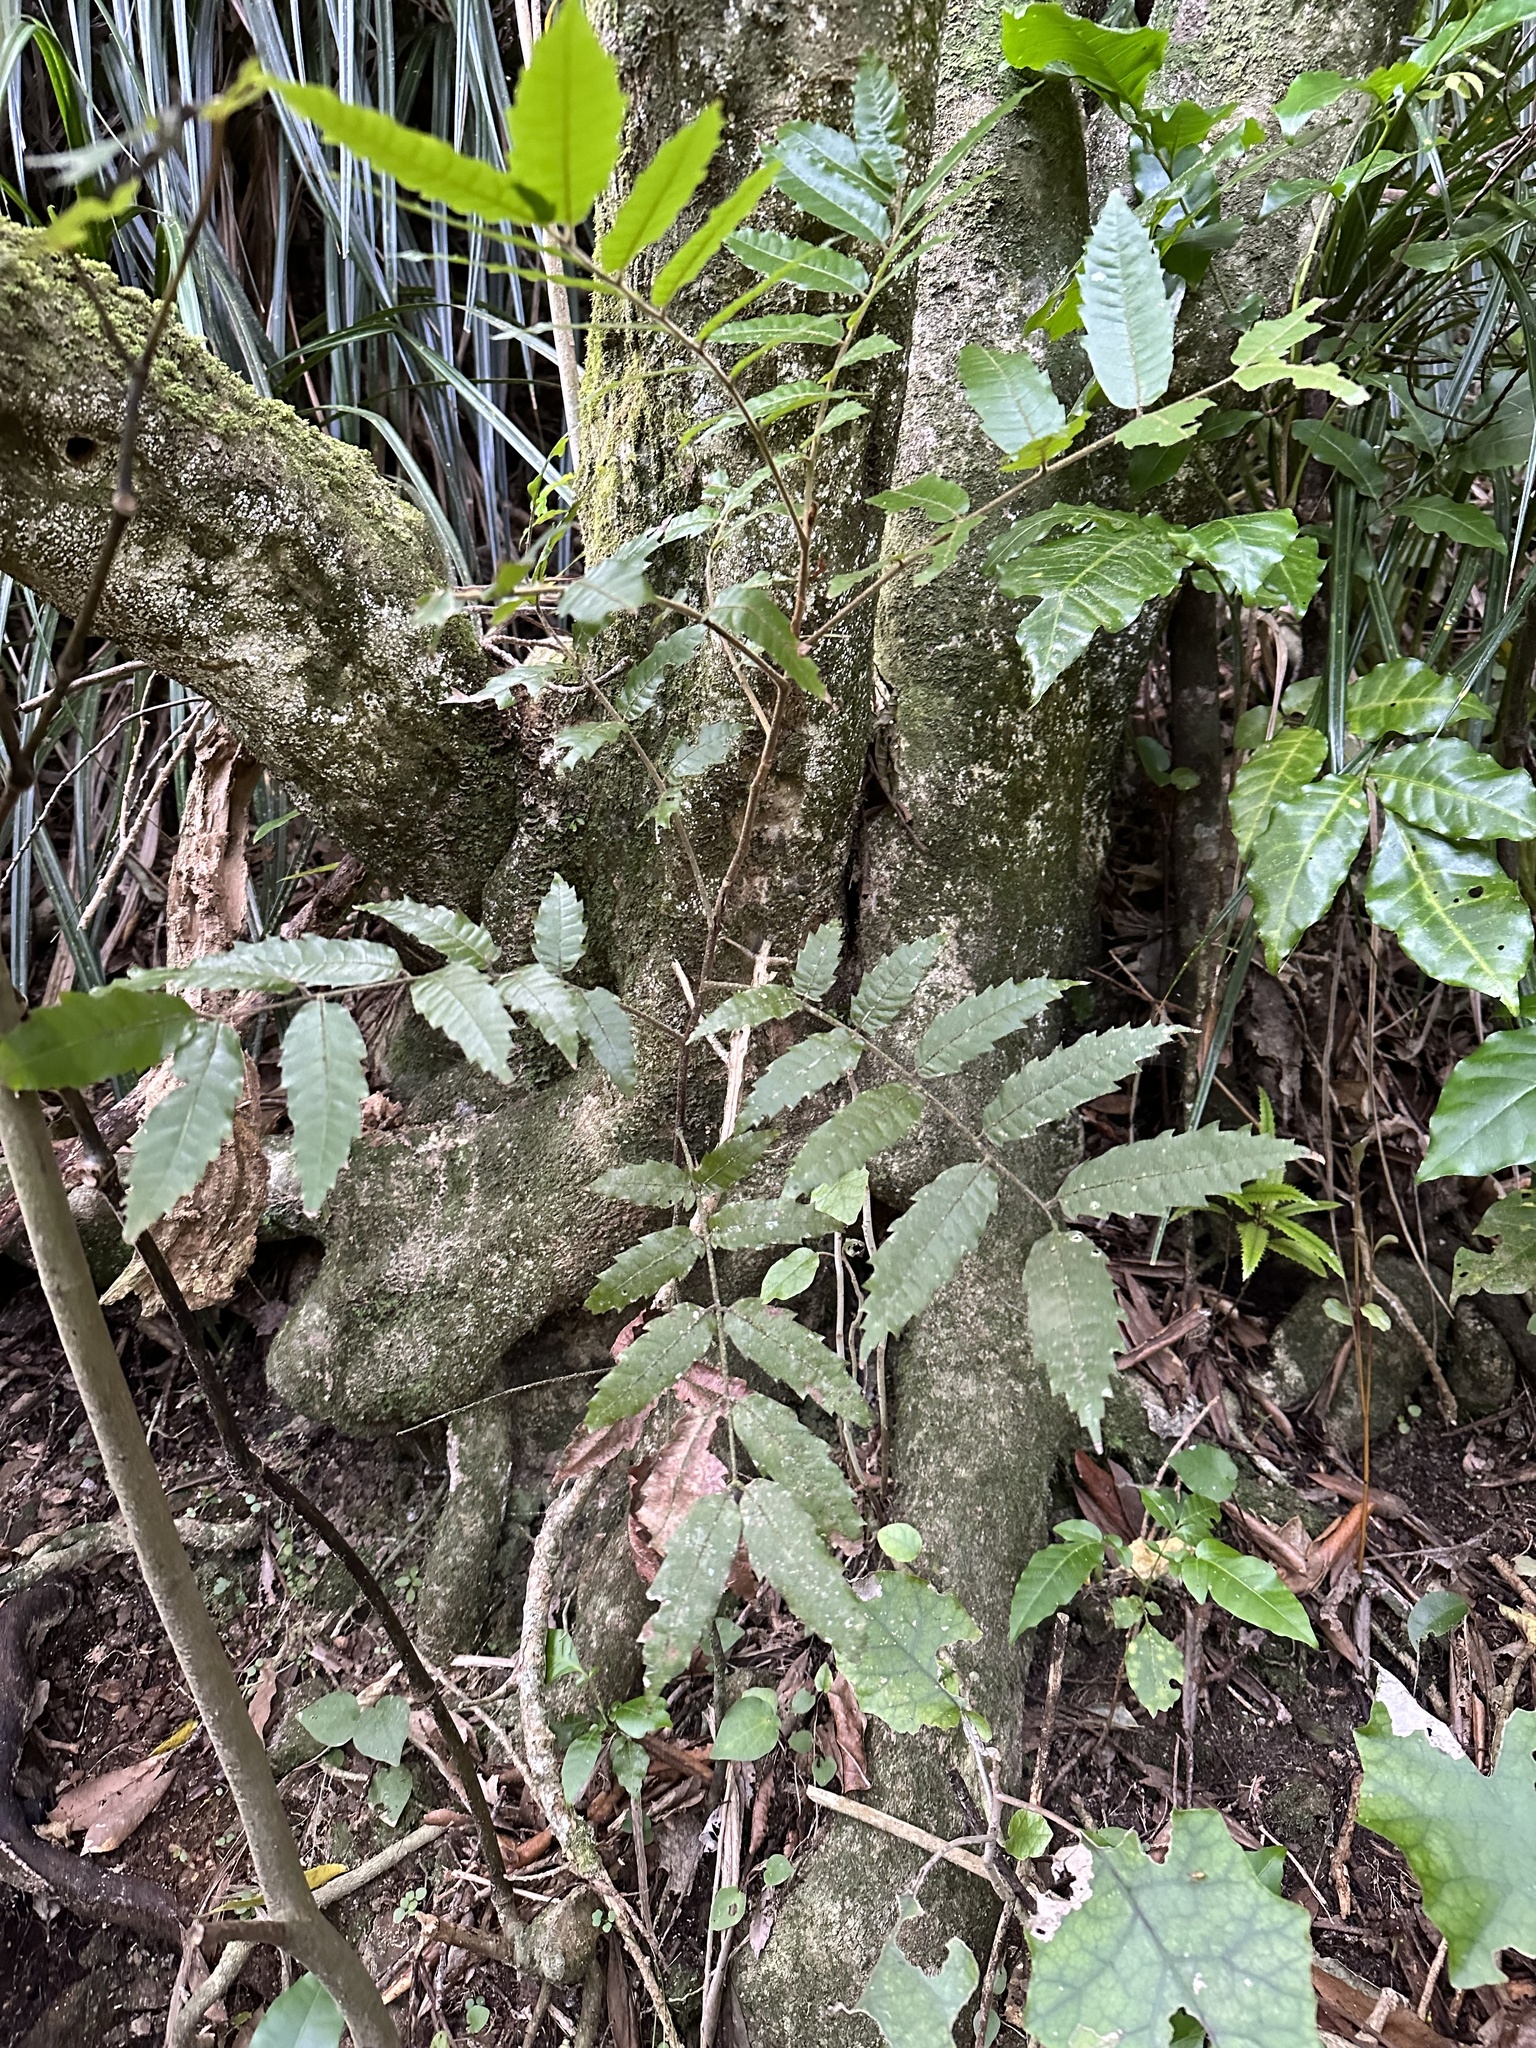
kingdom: Plantae
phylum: Tracheophyta
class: Magnoliopsida
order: Sapindales
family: Sapindaceae
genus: Alectryon
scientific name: Alectryon excelsus
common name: Three kings titoki
